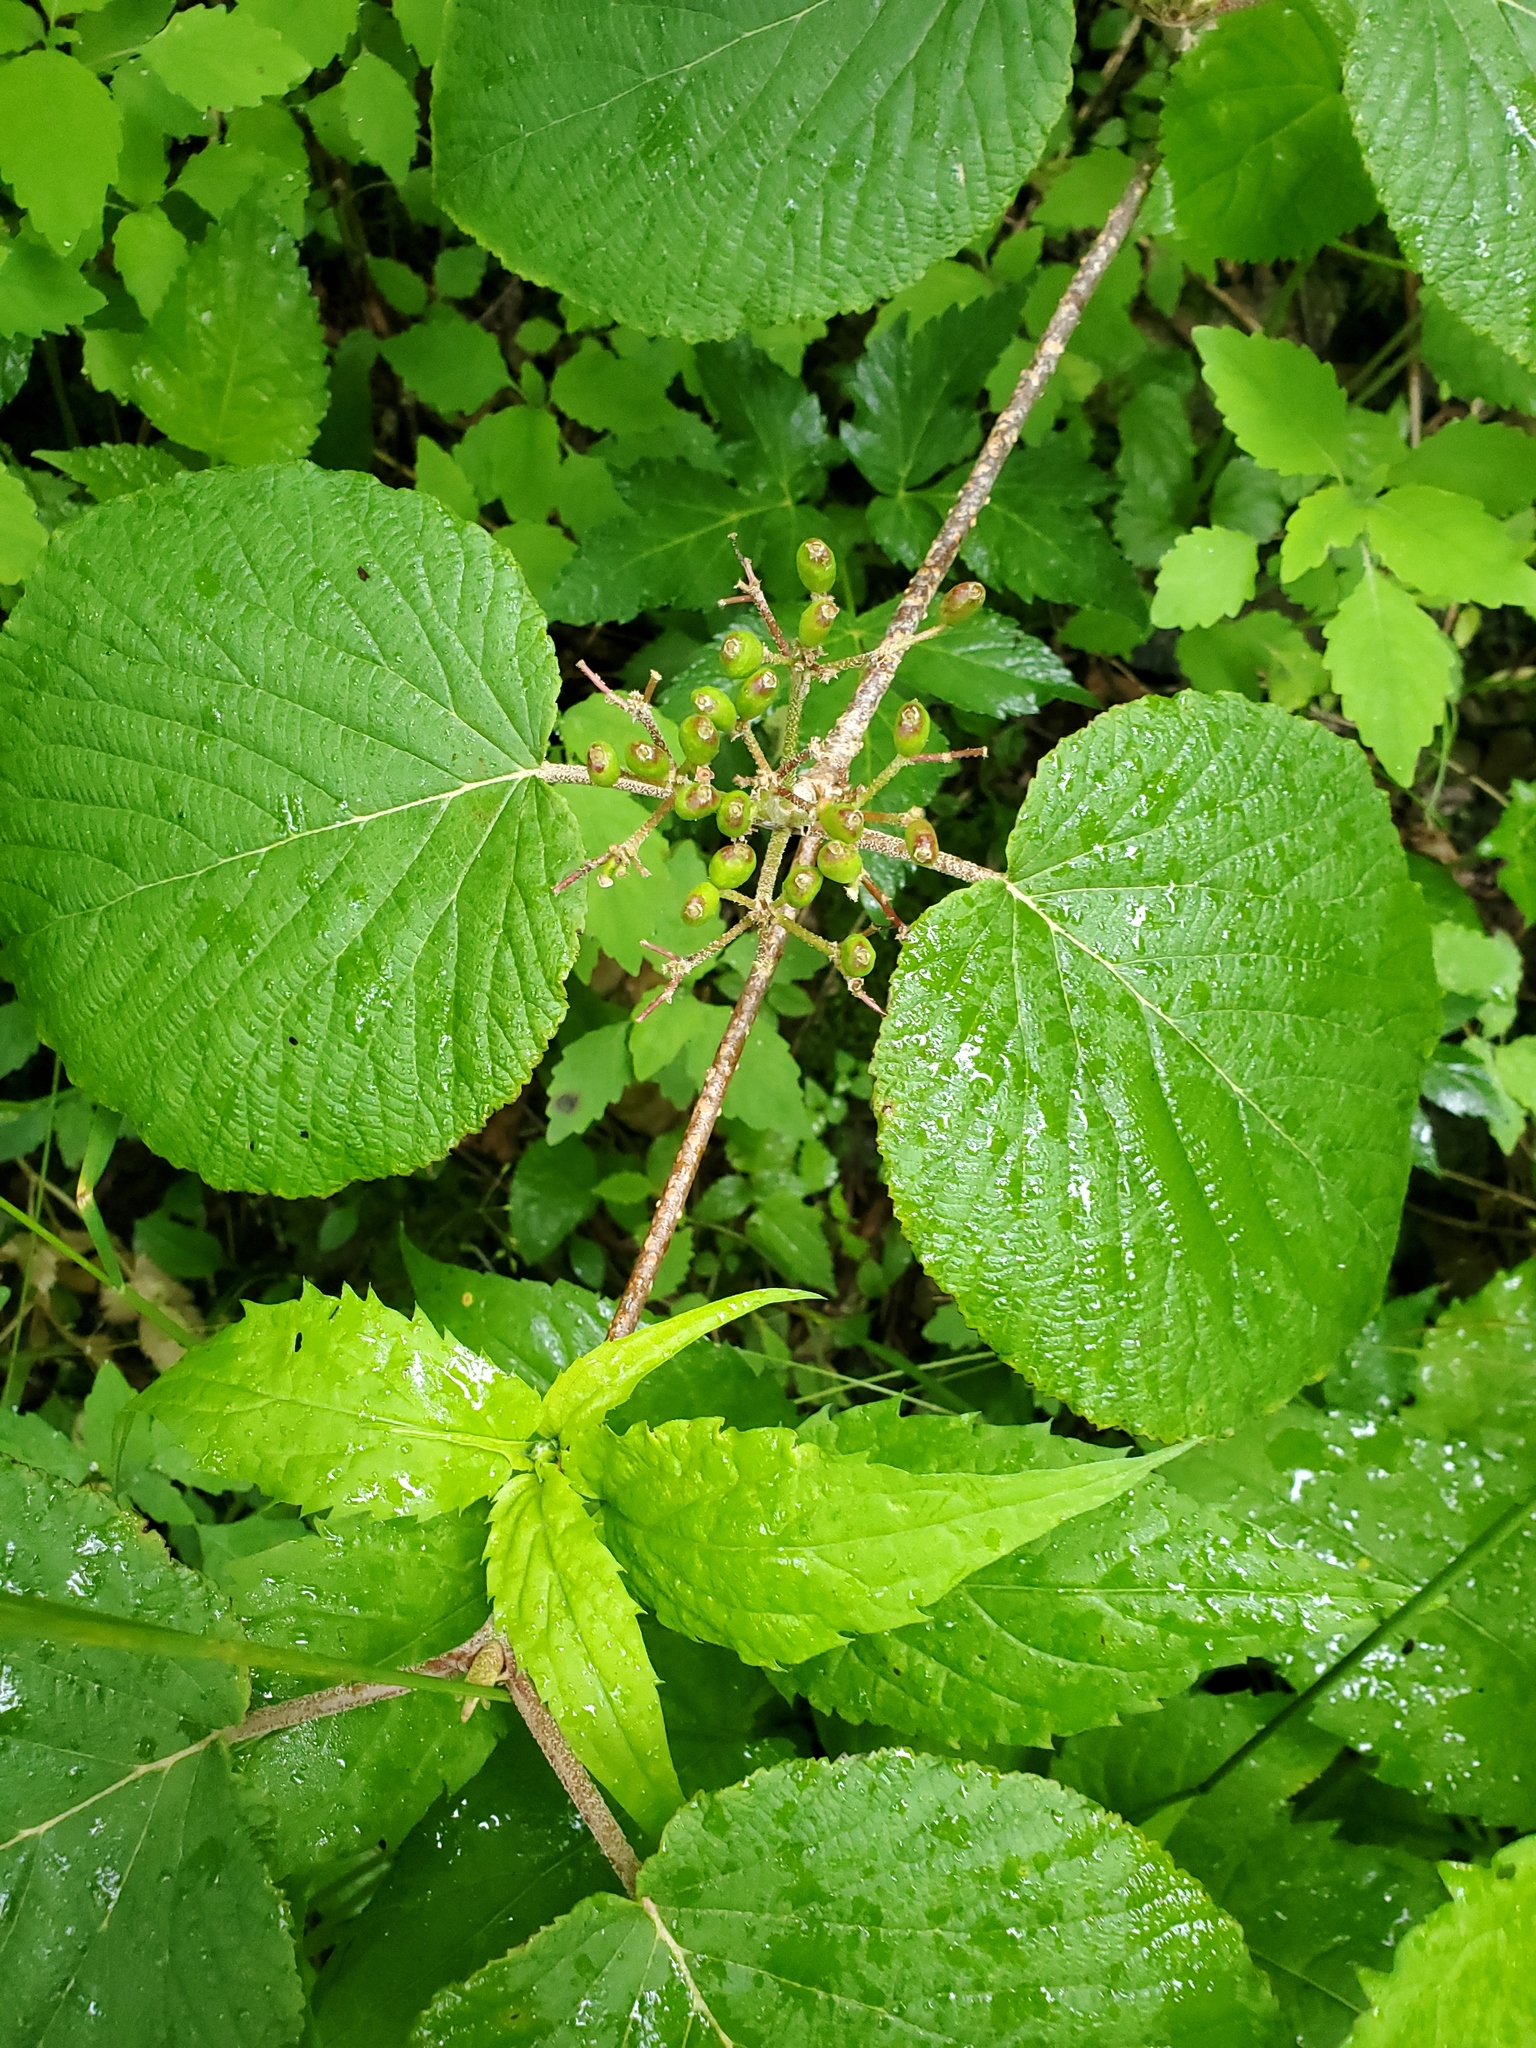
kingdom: Plantae
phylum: Tracheophyta
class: Magnoliopsida
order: Dipsacales
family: Viburnaceae
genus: Viburnum
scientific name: Viburnum lantanoides
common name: Hobblebush
